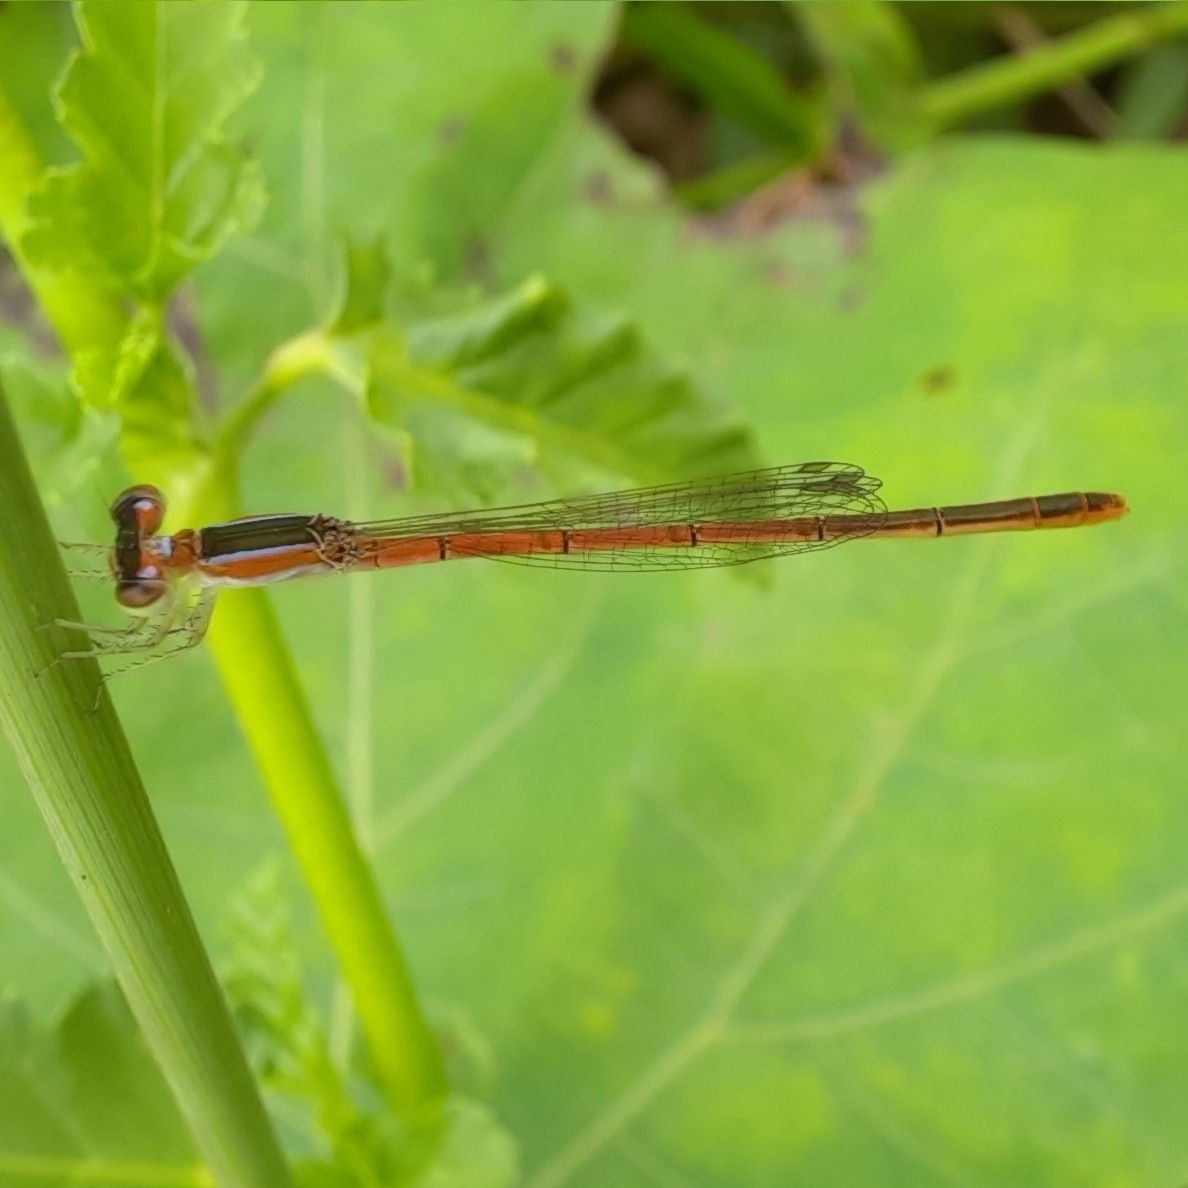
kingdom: Animalia
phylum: Arthropoda
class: Insecta
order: Odonata
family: Coenagrionidae
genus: Agriocnemis
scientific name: Agriocnemis pygmaea
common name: Pygmy wisp
